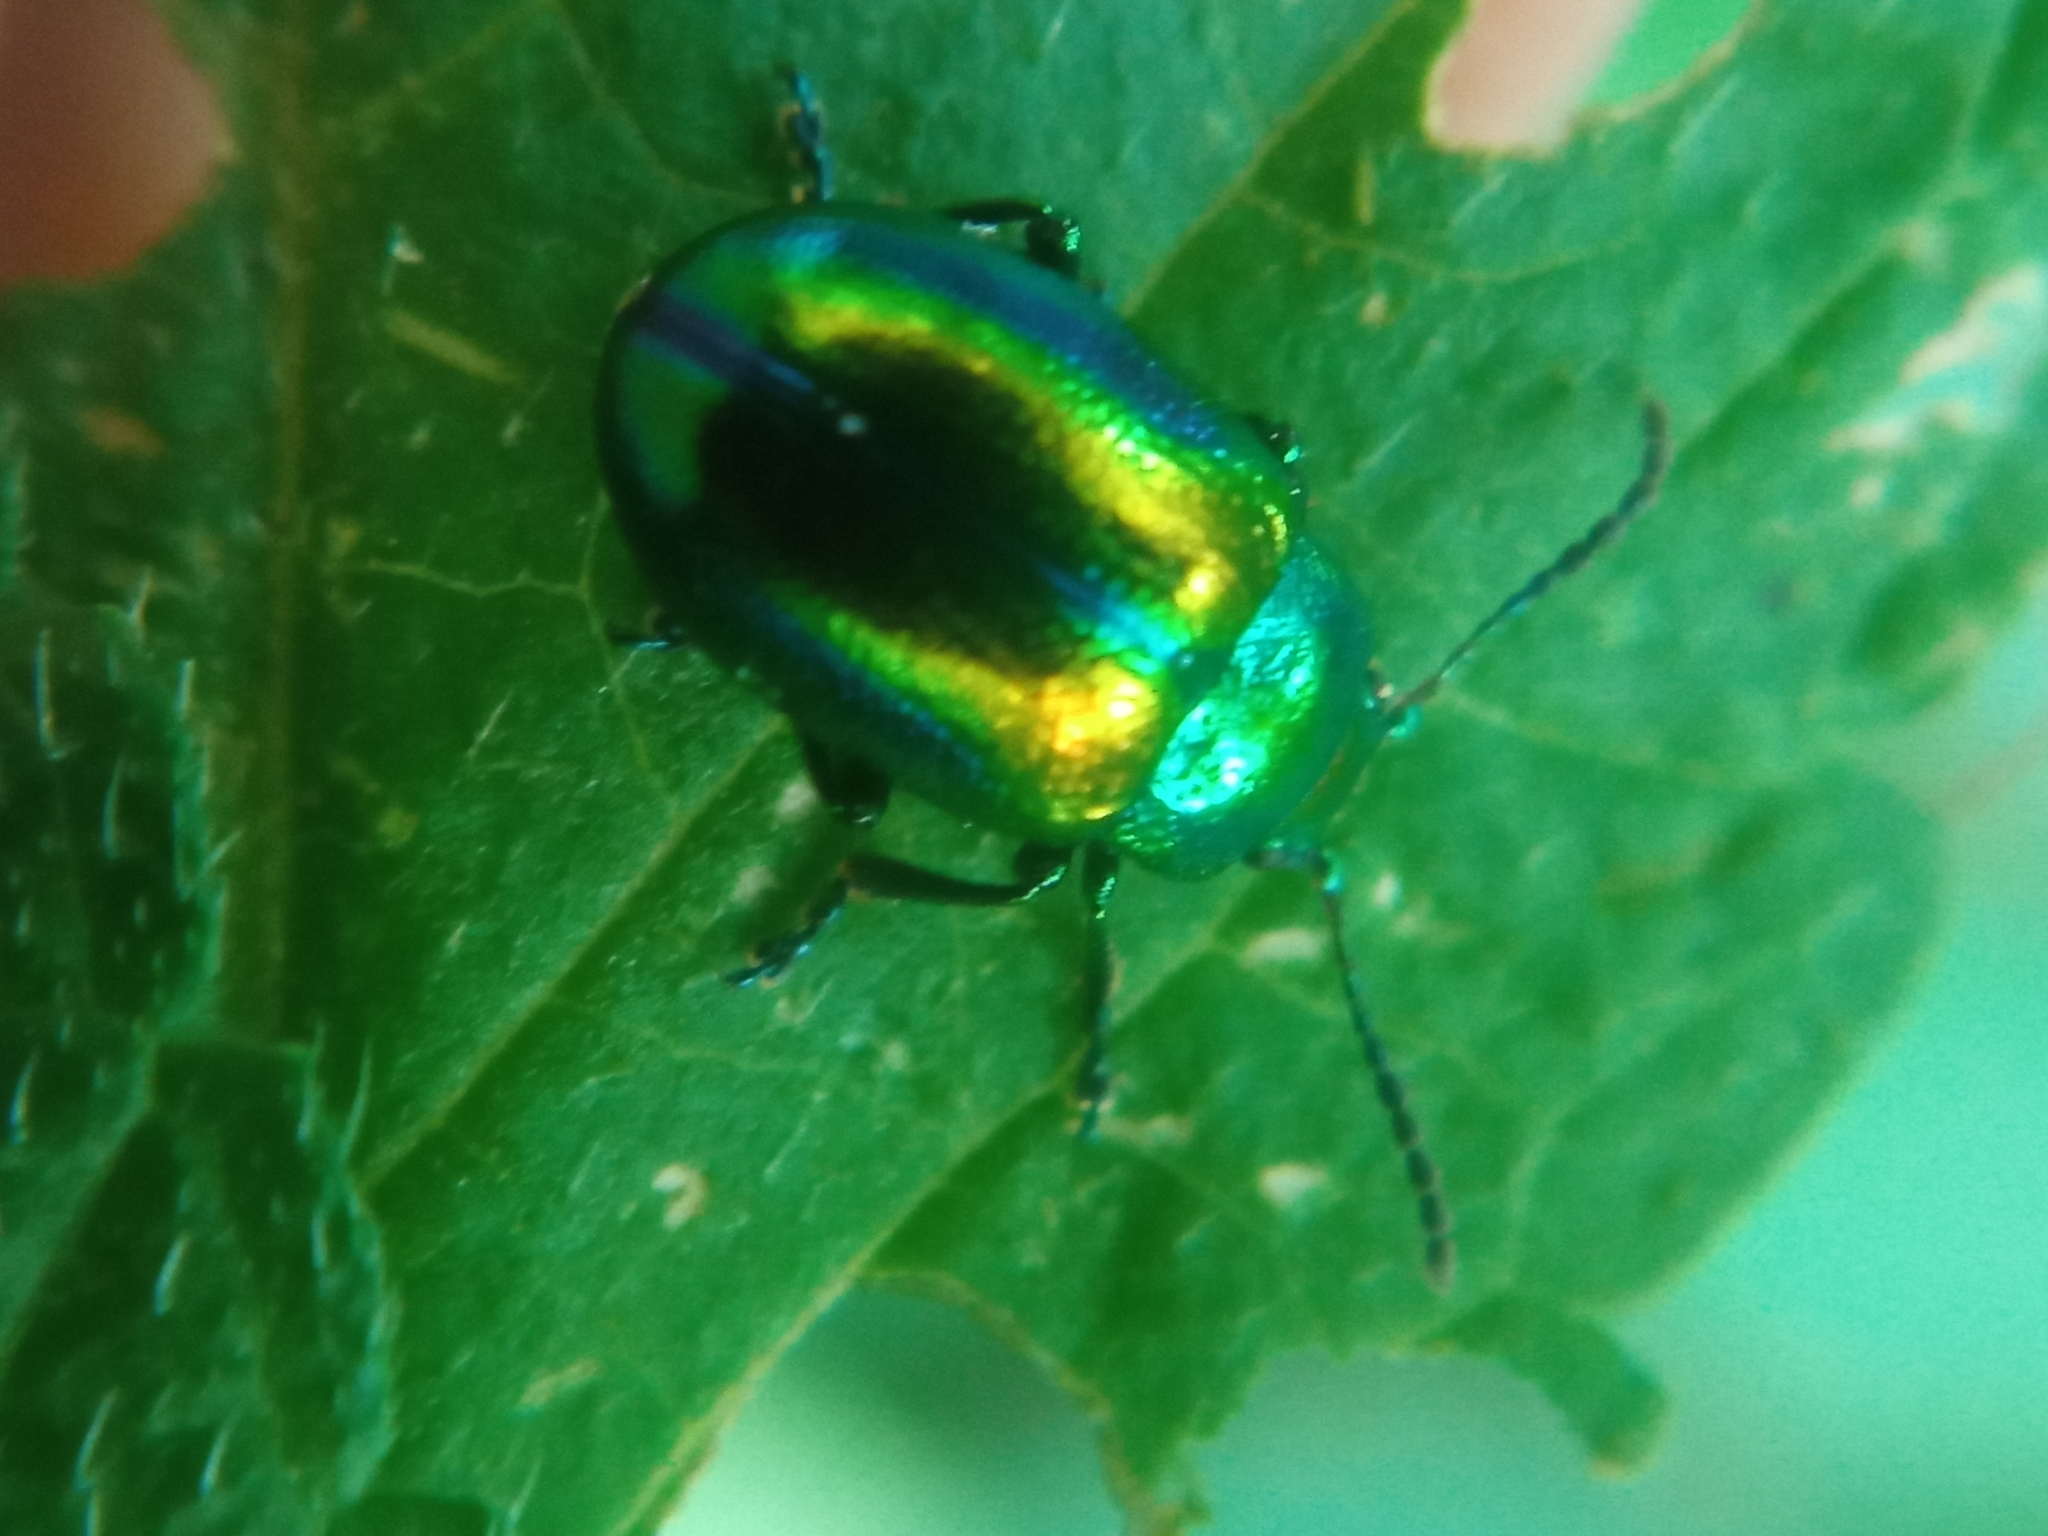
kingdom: Animalia
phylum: Arthropoda
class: Insecta
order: Coleoptera
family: Chrysomelidae
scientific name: Chrysomelidae
